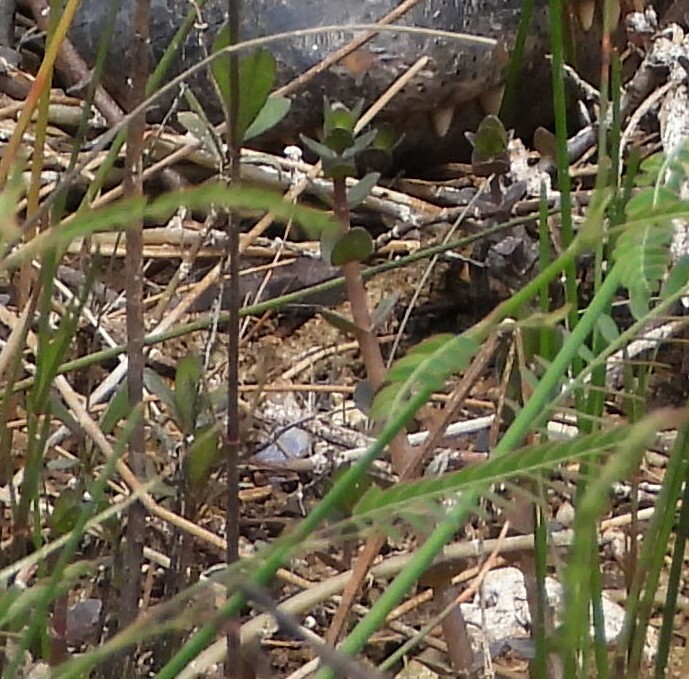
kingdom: Plantae
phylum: Tracheophyta
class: Magnoliopsida
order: Lamiales
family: Plantaginaceae
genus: Bacopa
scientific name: Bacopa caroliniana
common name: Lemon bacopa
